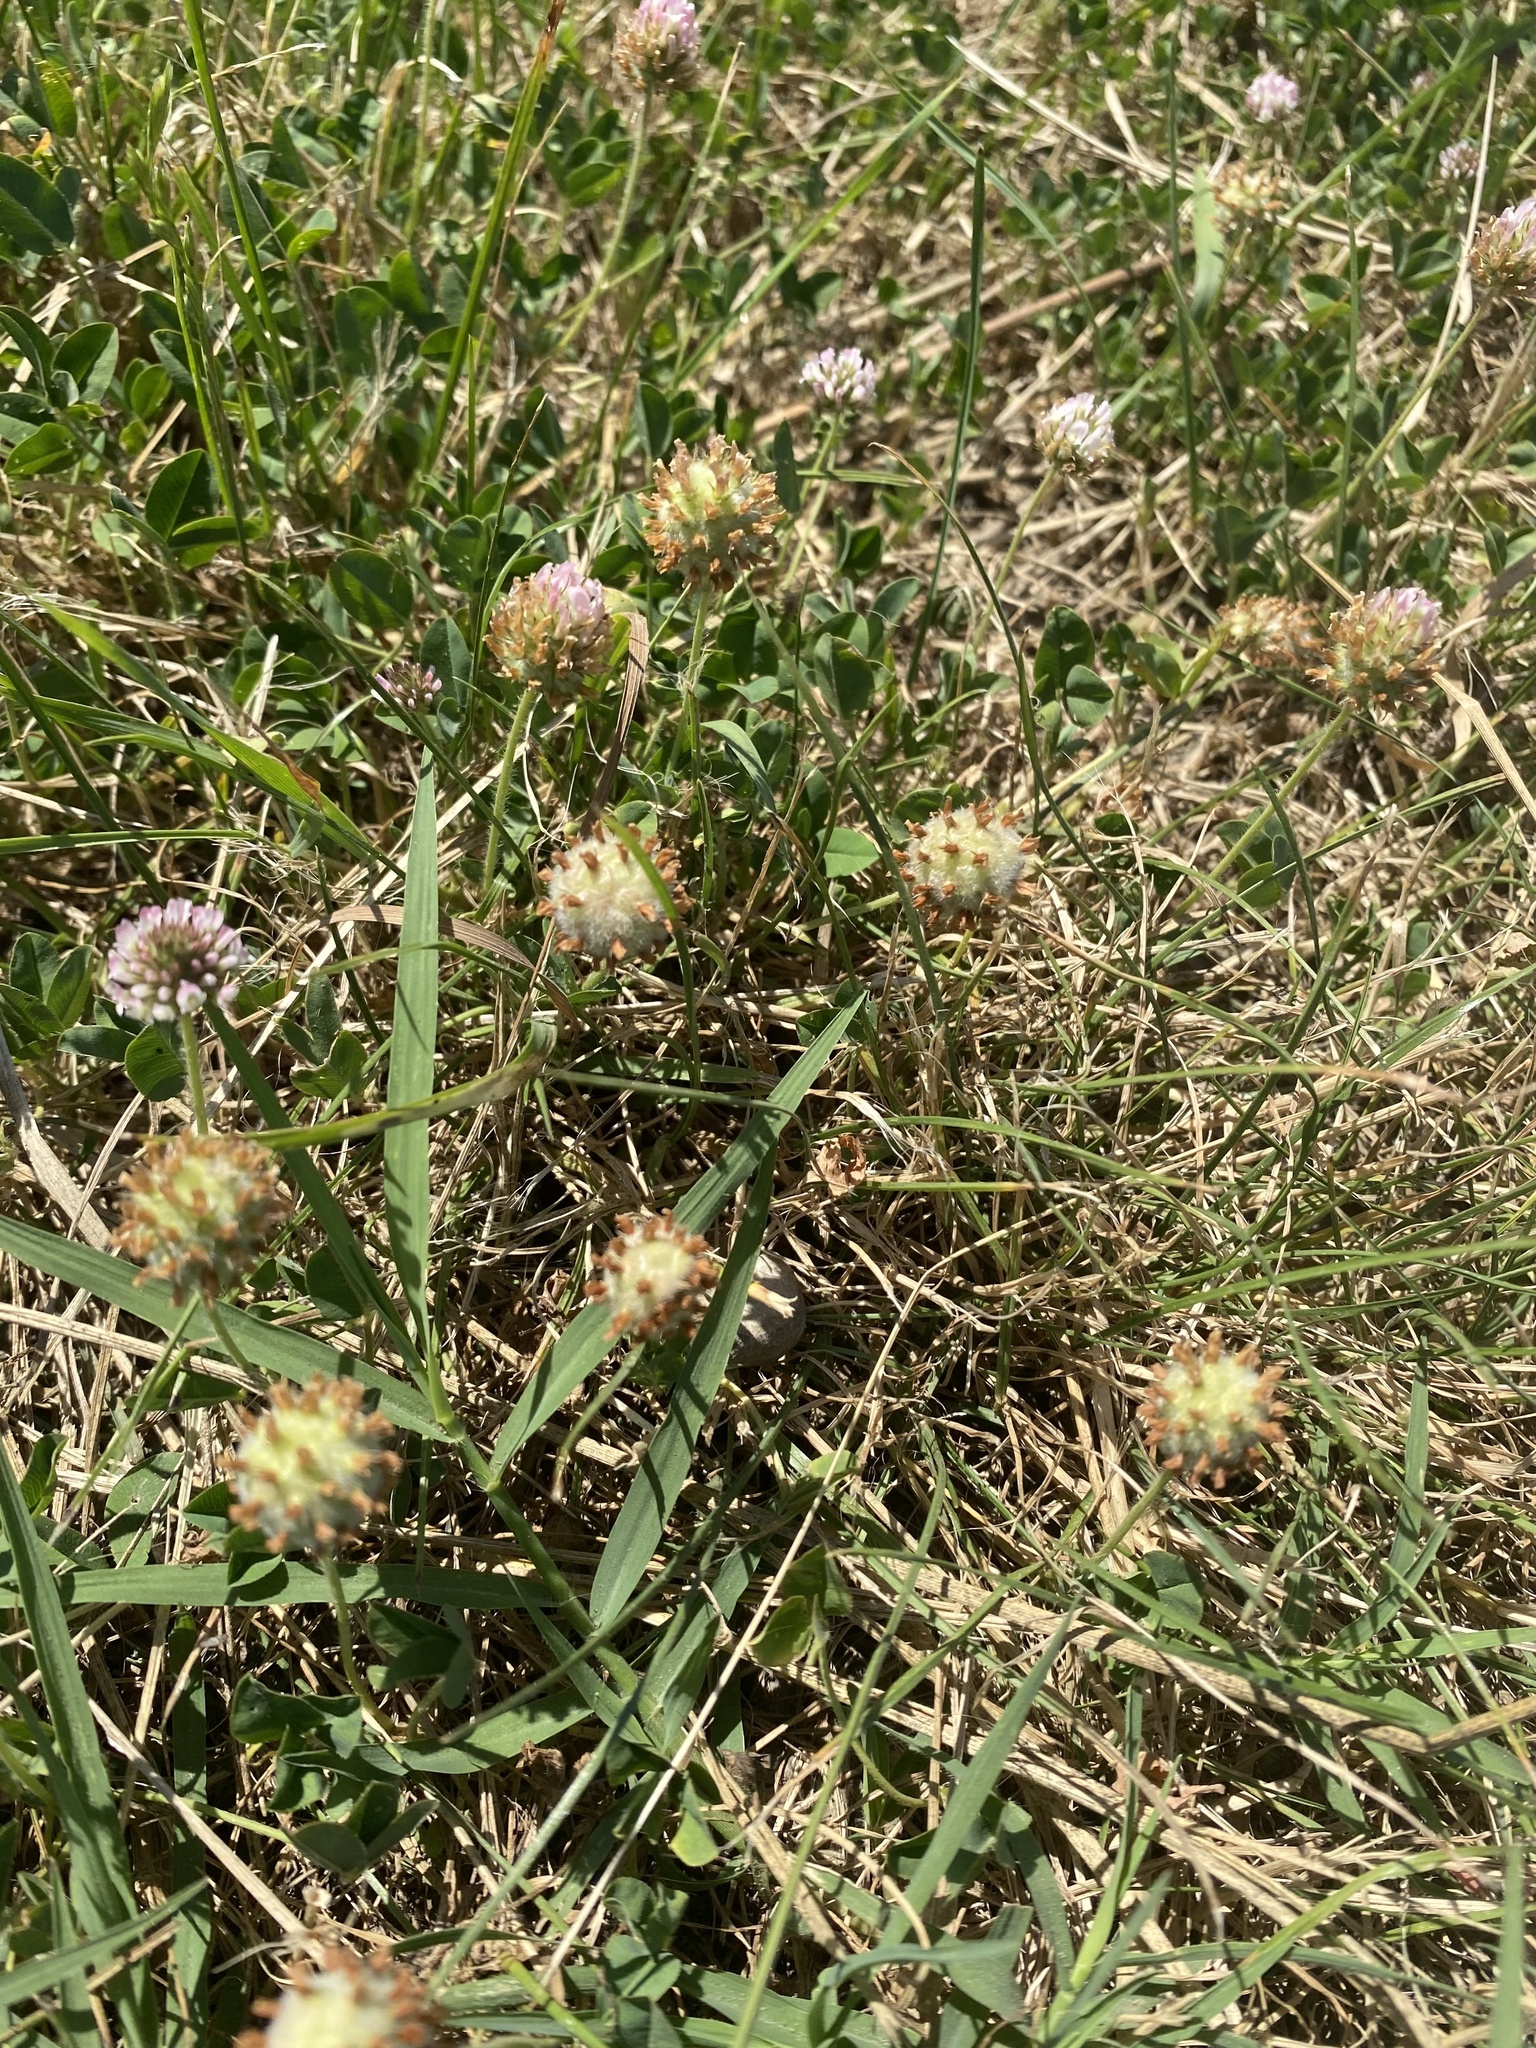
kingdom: Plantae
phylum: Tracheophyta
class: Magnoliopsida
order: Fabales
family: Fabaceae
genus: Trifolium
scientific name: Trifolium fragiferum
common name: Strawberry clover
